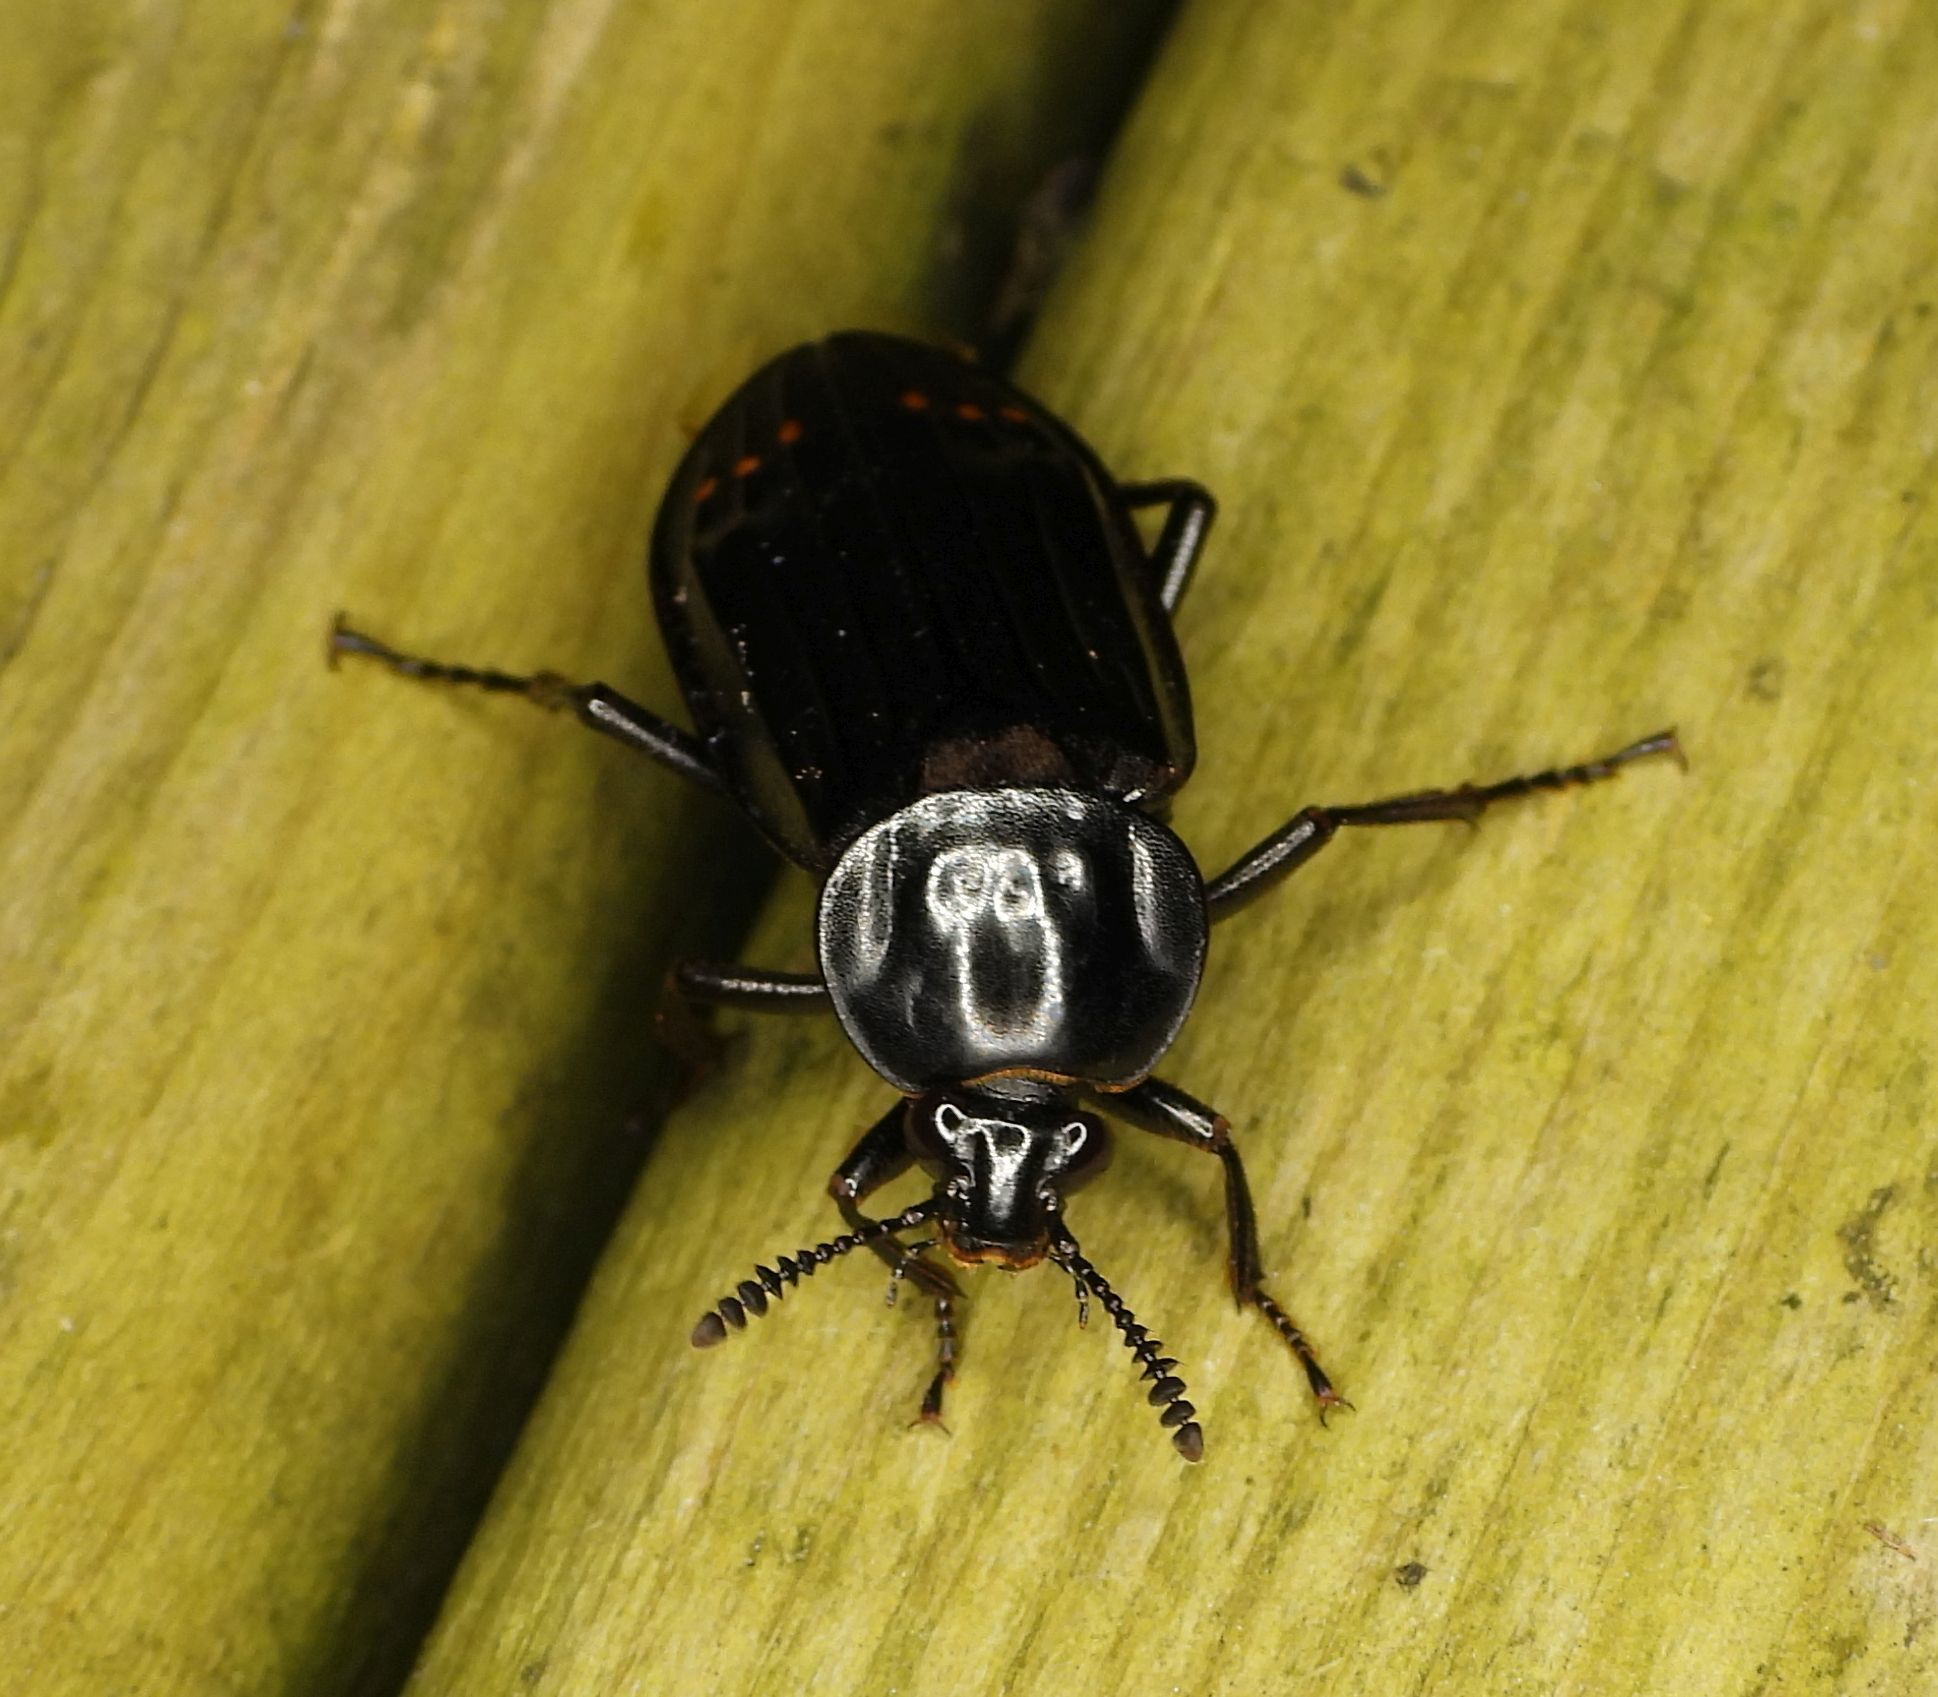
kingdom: Animalia
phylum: Arthropoda
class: Insecta
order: Coleoptera
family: Staphylinidae
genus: Necrodes
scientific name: Necrodes surinamensis
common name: Red-lined carrion beetle
